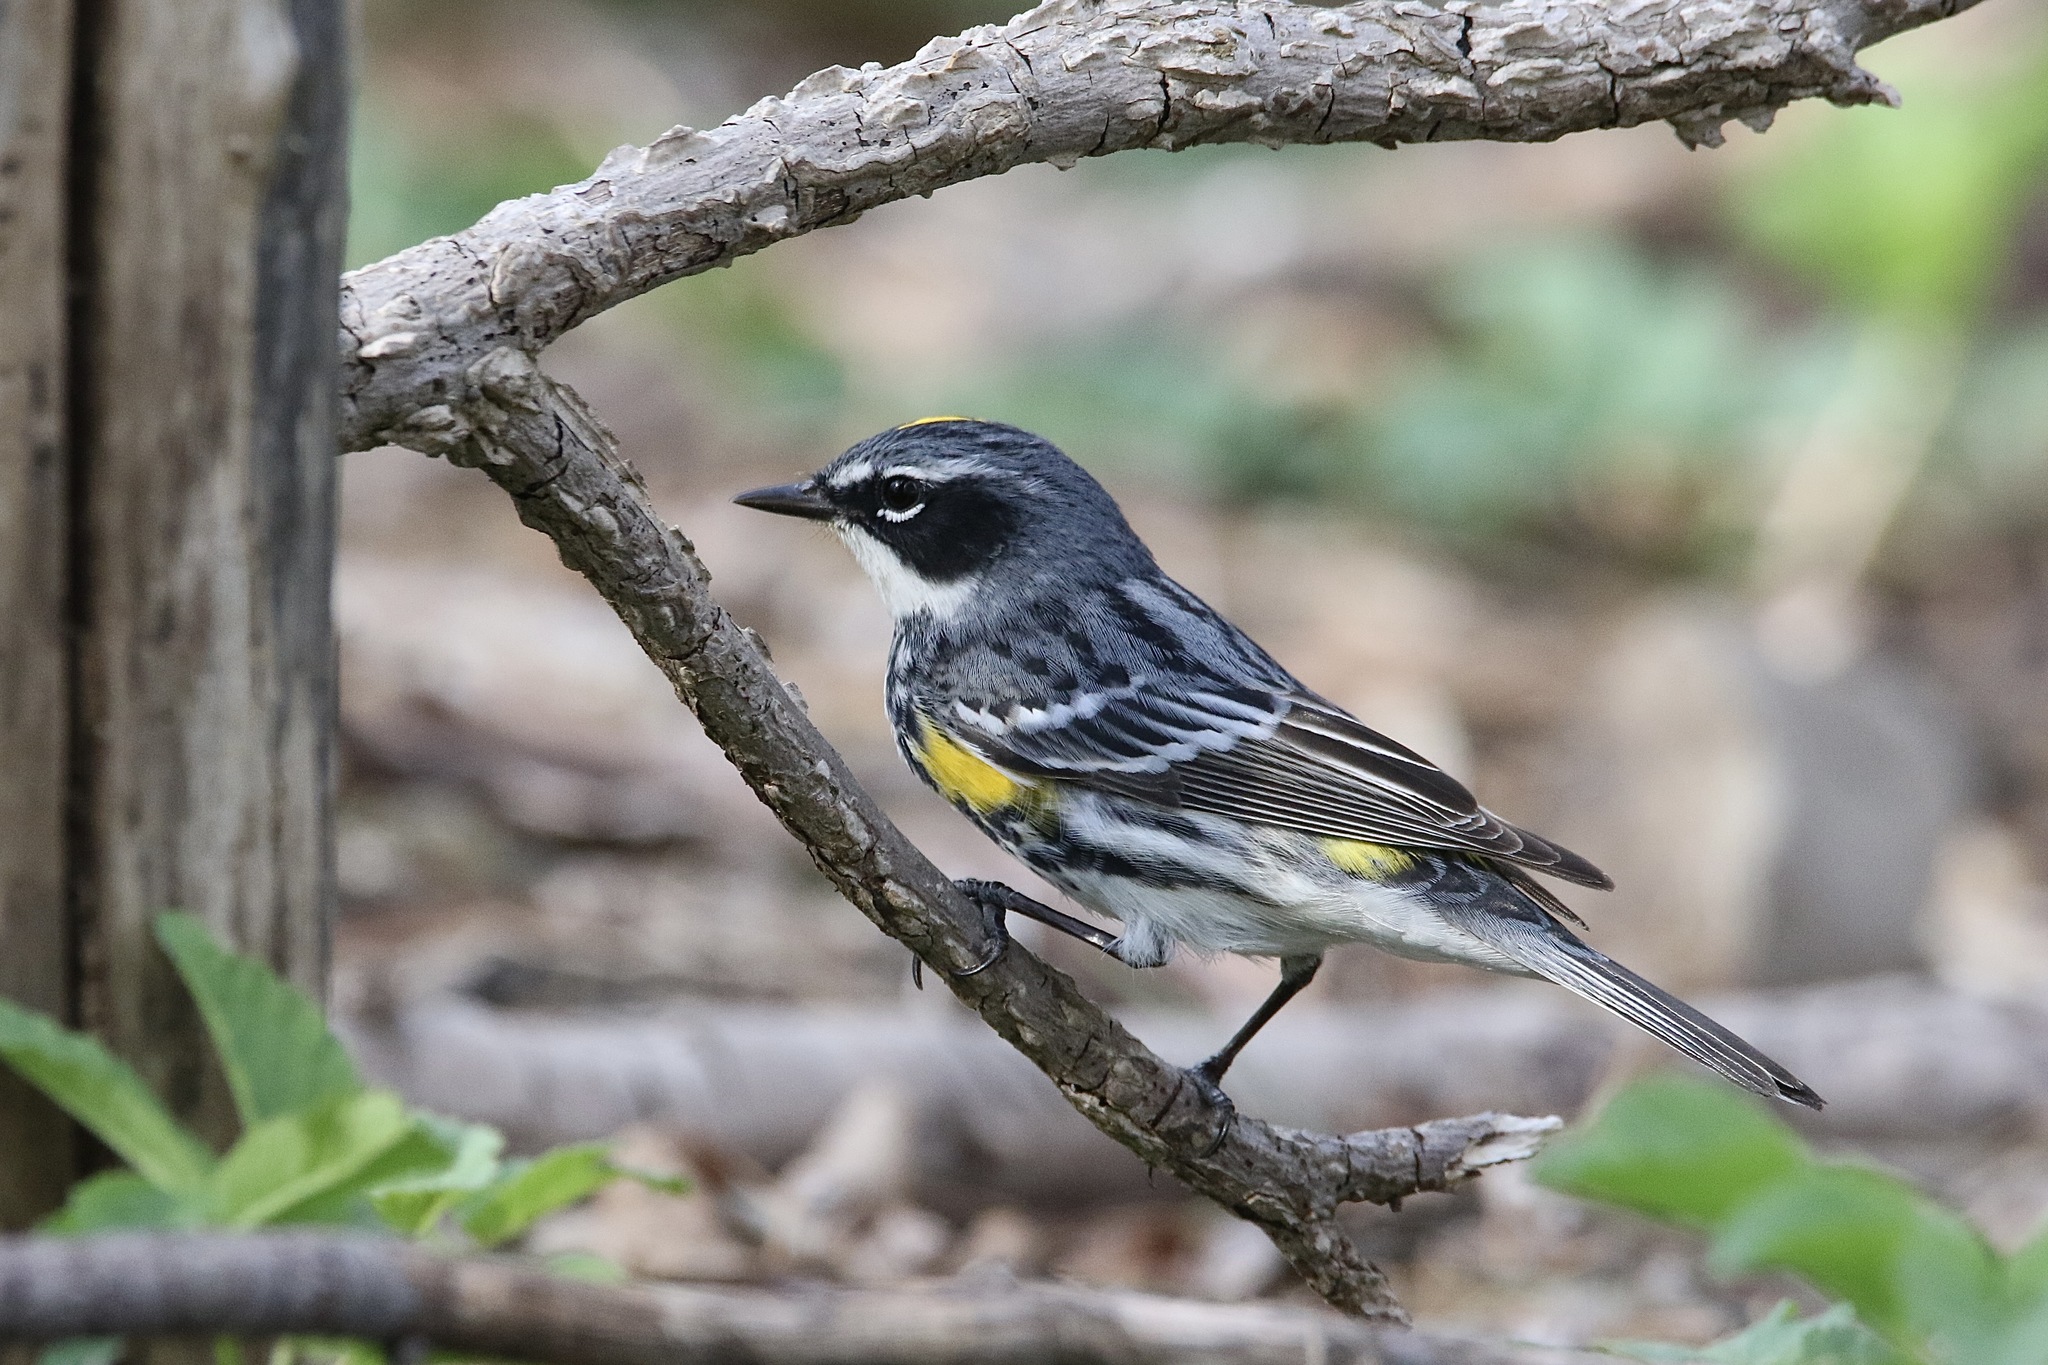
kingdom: Animalia
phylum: Chordata
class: Aves
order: Passeriformes
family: Parulidae
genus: Setophaga
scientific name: Setophaga coronata
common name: Myrtle warbler
